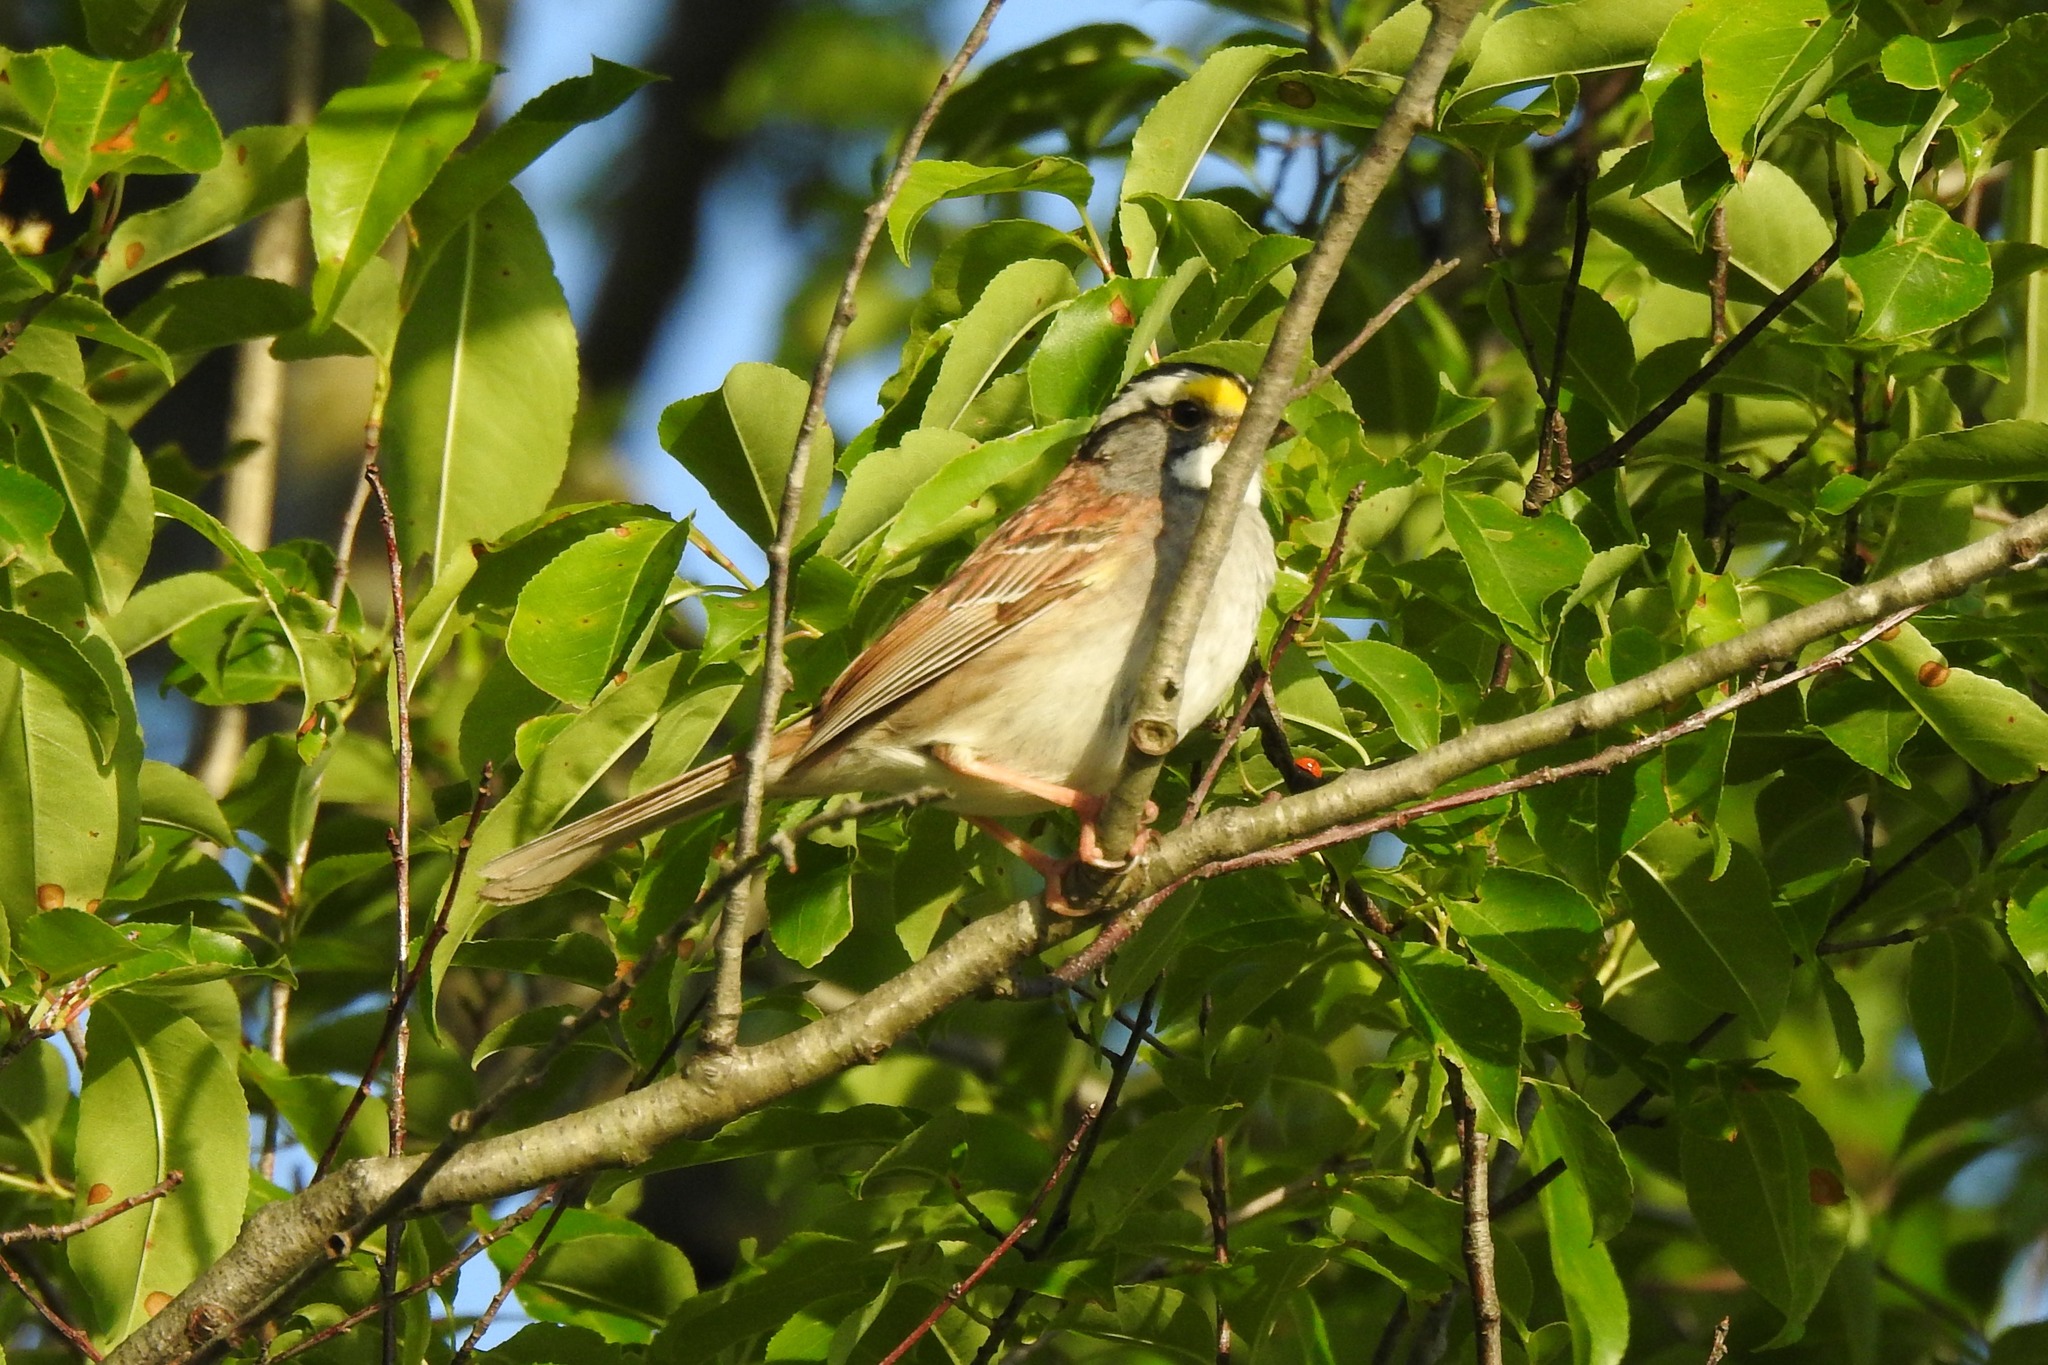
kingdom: Animalia
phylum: Chordata
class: Aves
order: Passeriformes
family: Passerellidae
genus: Zonotrichia
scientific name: Zonotrichia albicollis
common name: White-throated sparrow
